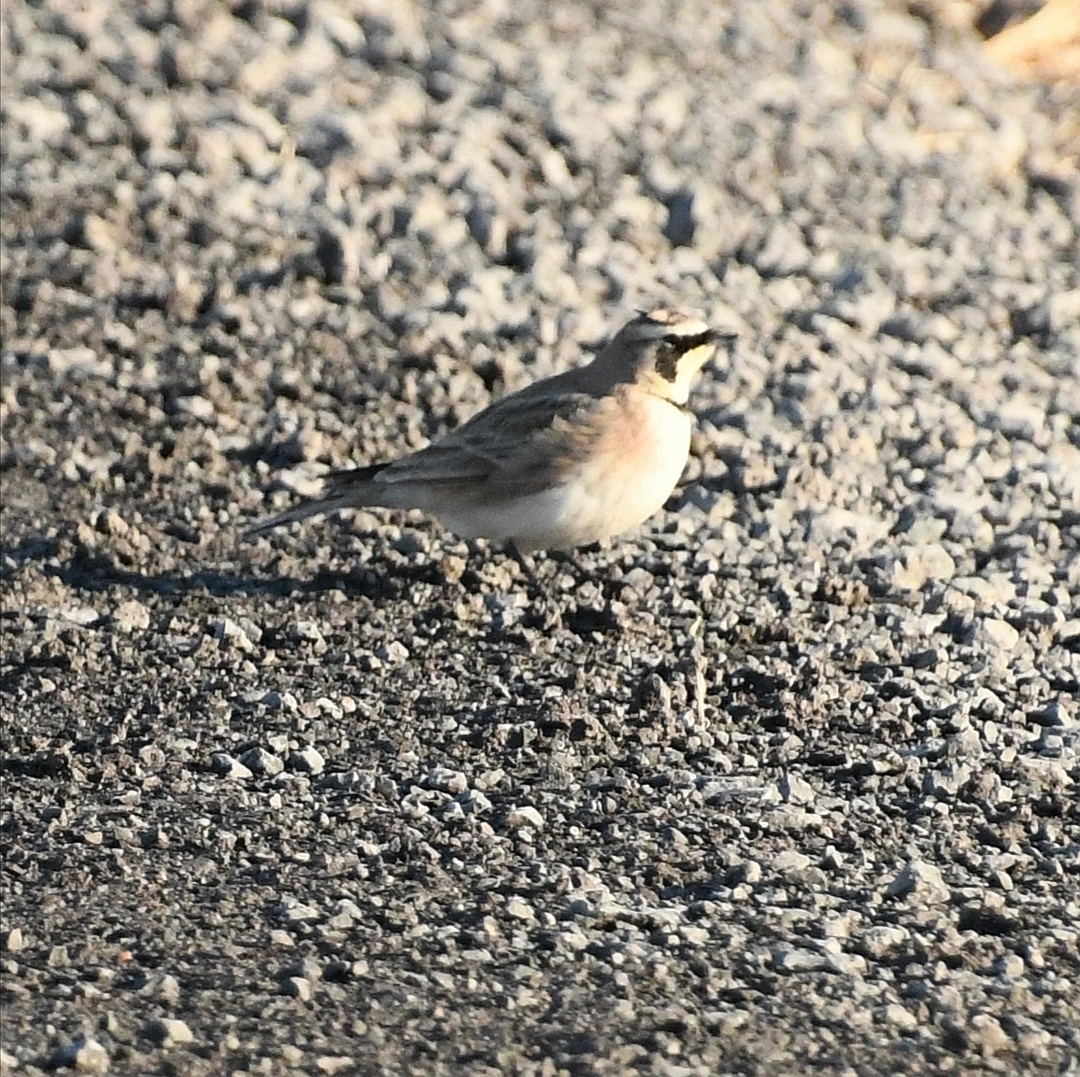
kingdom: Animalia
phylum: Chordata
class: Aves
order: Passeriformes
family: Alaudidae
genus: Eremophila
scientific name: Eremophila alpestris
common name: Horned lark
